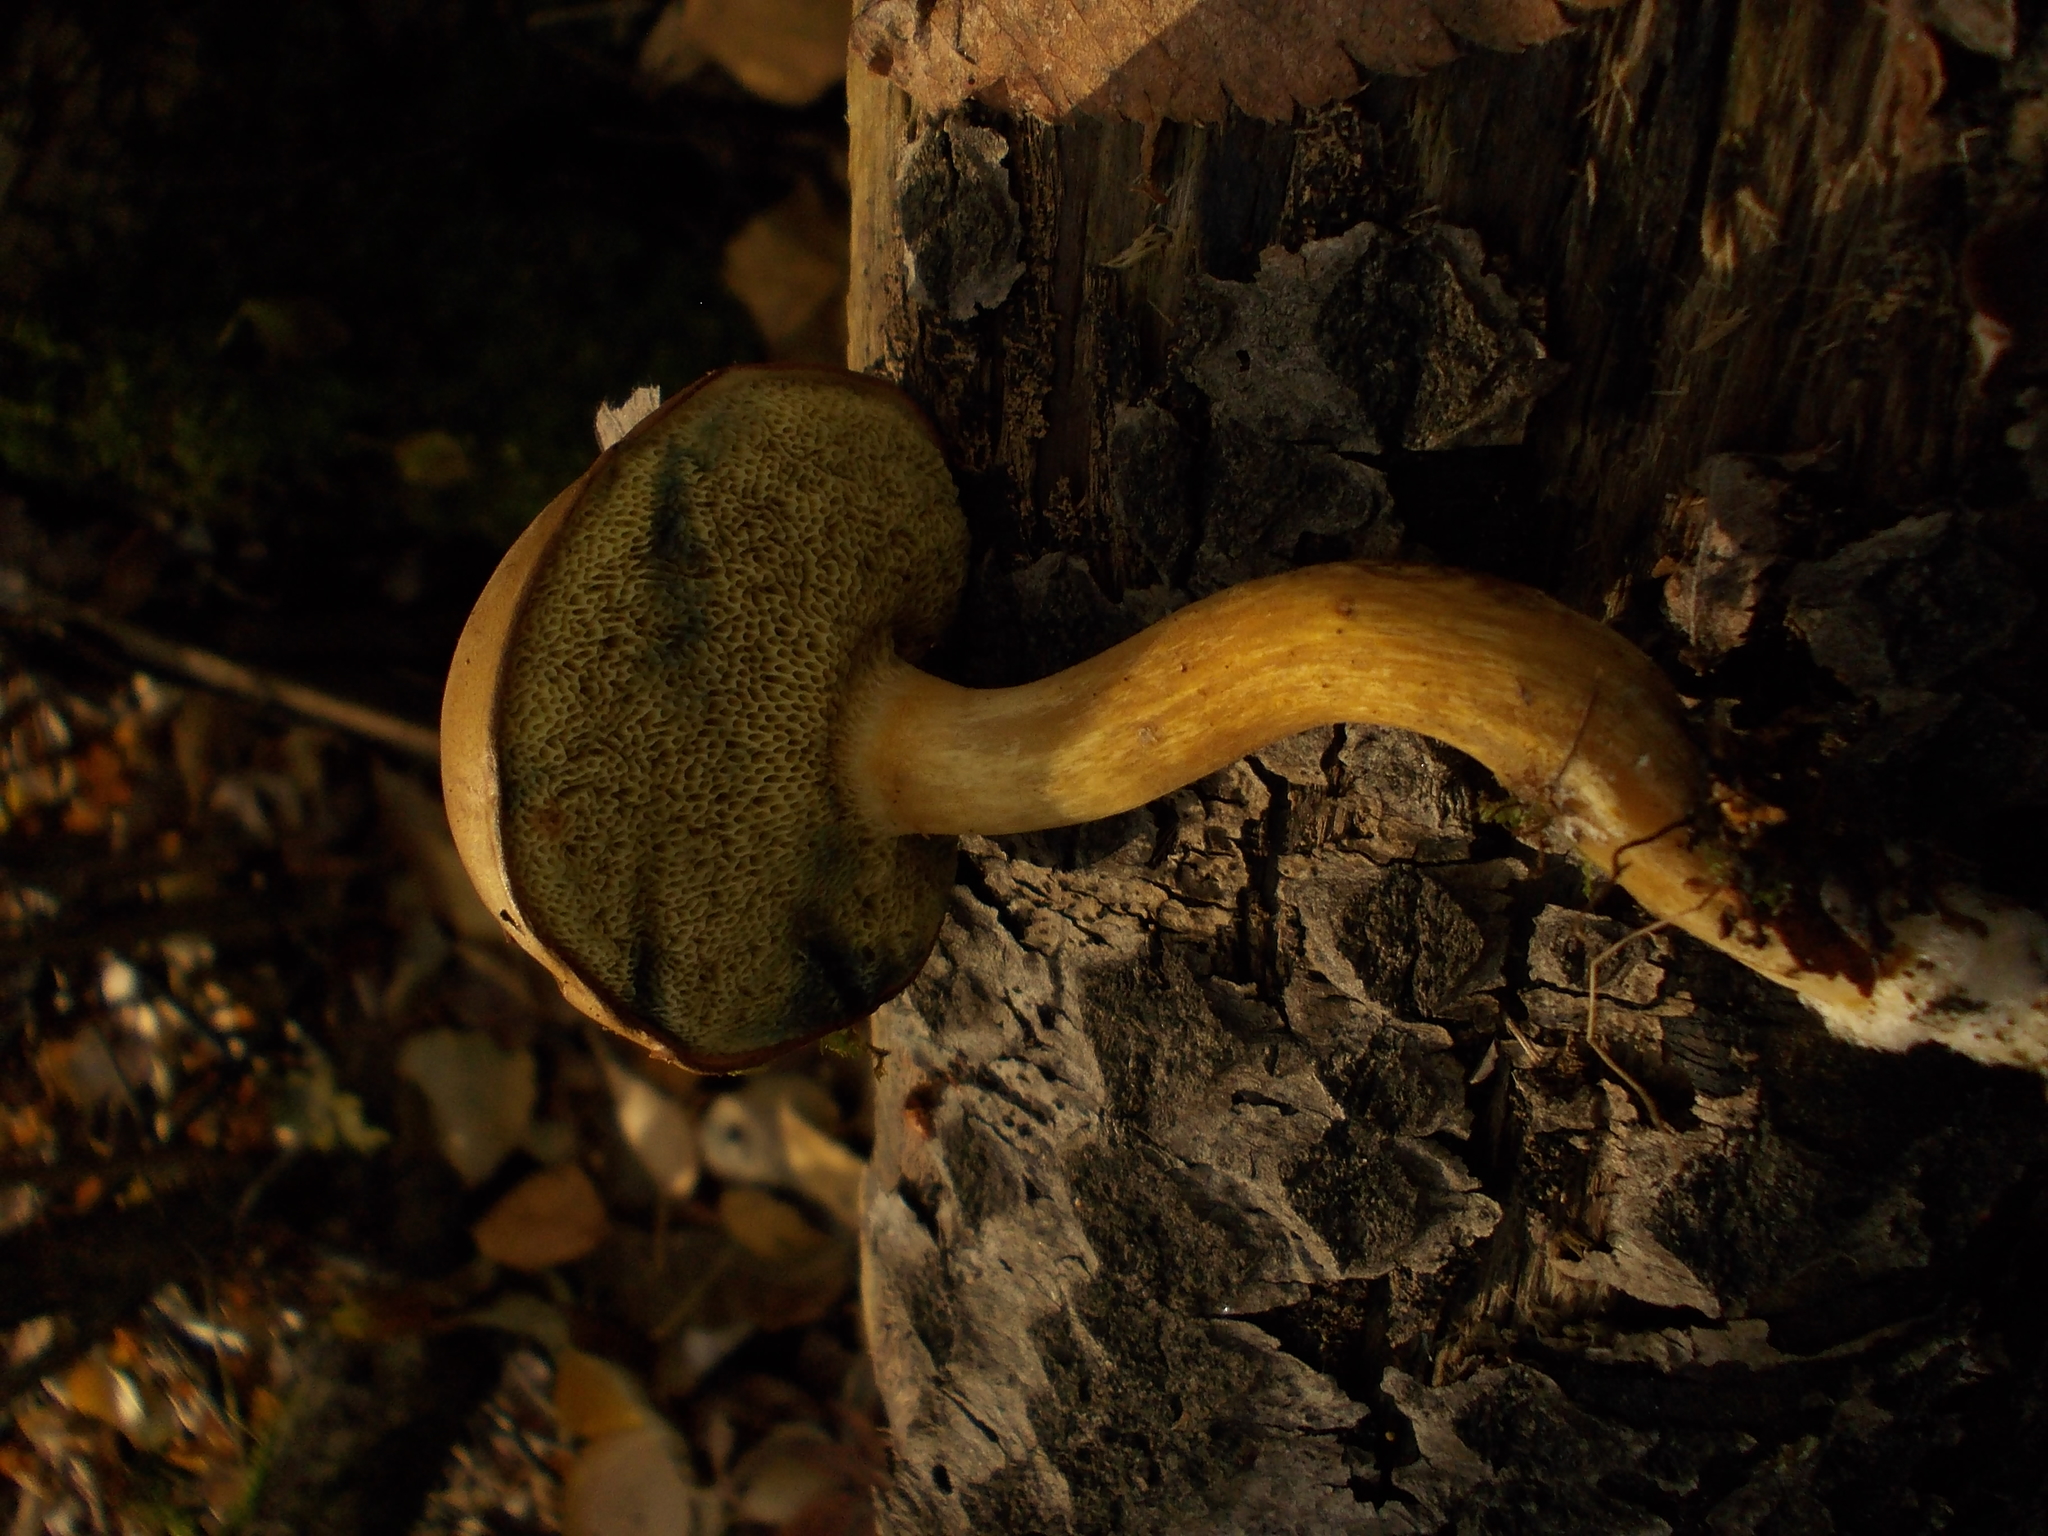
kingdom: Fungi
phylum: Basidiomycota
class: Agaricomycetes
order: Boletales
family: Boletaceae
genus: Imleria
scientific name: Imleria badia
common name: Bay bolete
